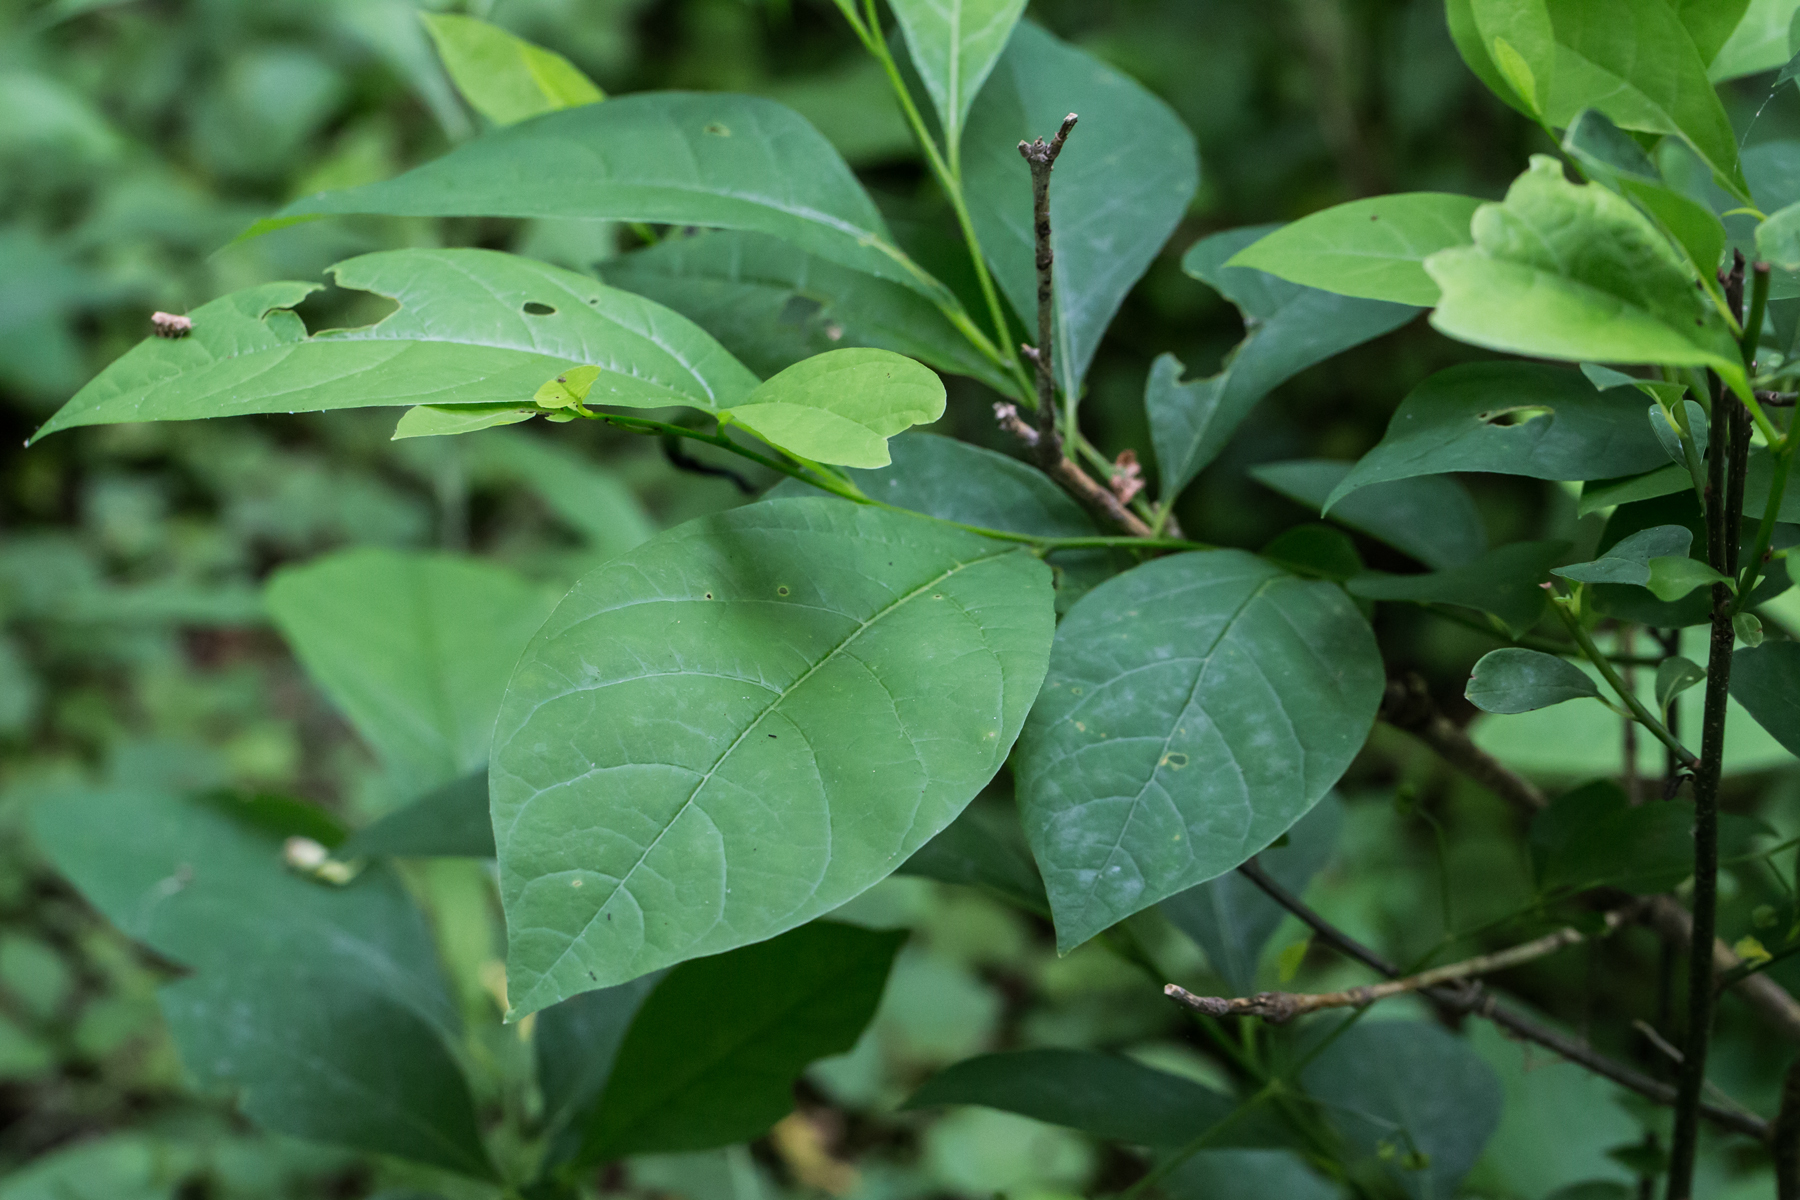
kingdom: Plantae
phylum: Tracheophyta
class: Magnoliopsida
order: Laurales
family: Lauraceae
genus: Lindera
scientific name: Lindera benzoin
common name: Spicebush
